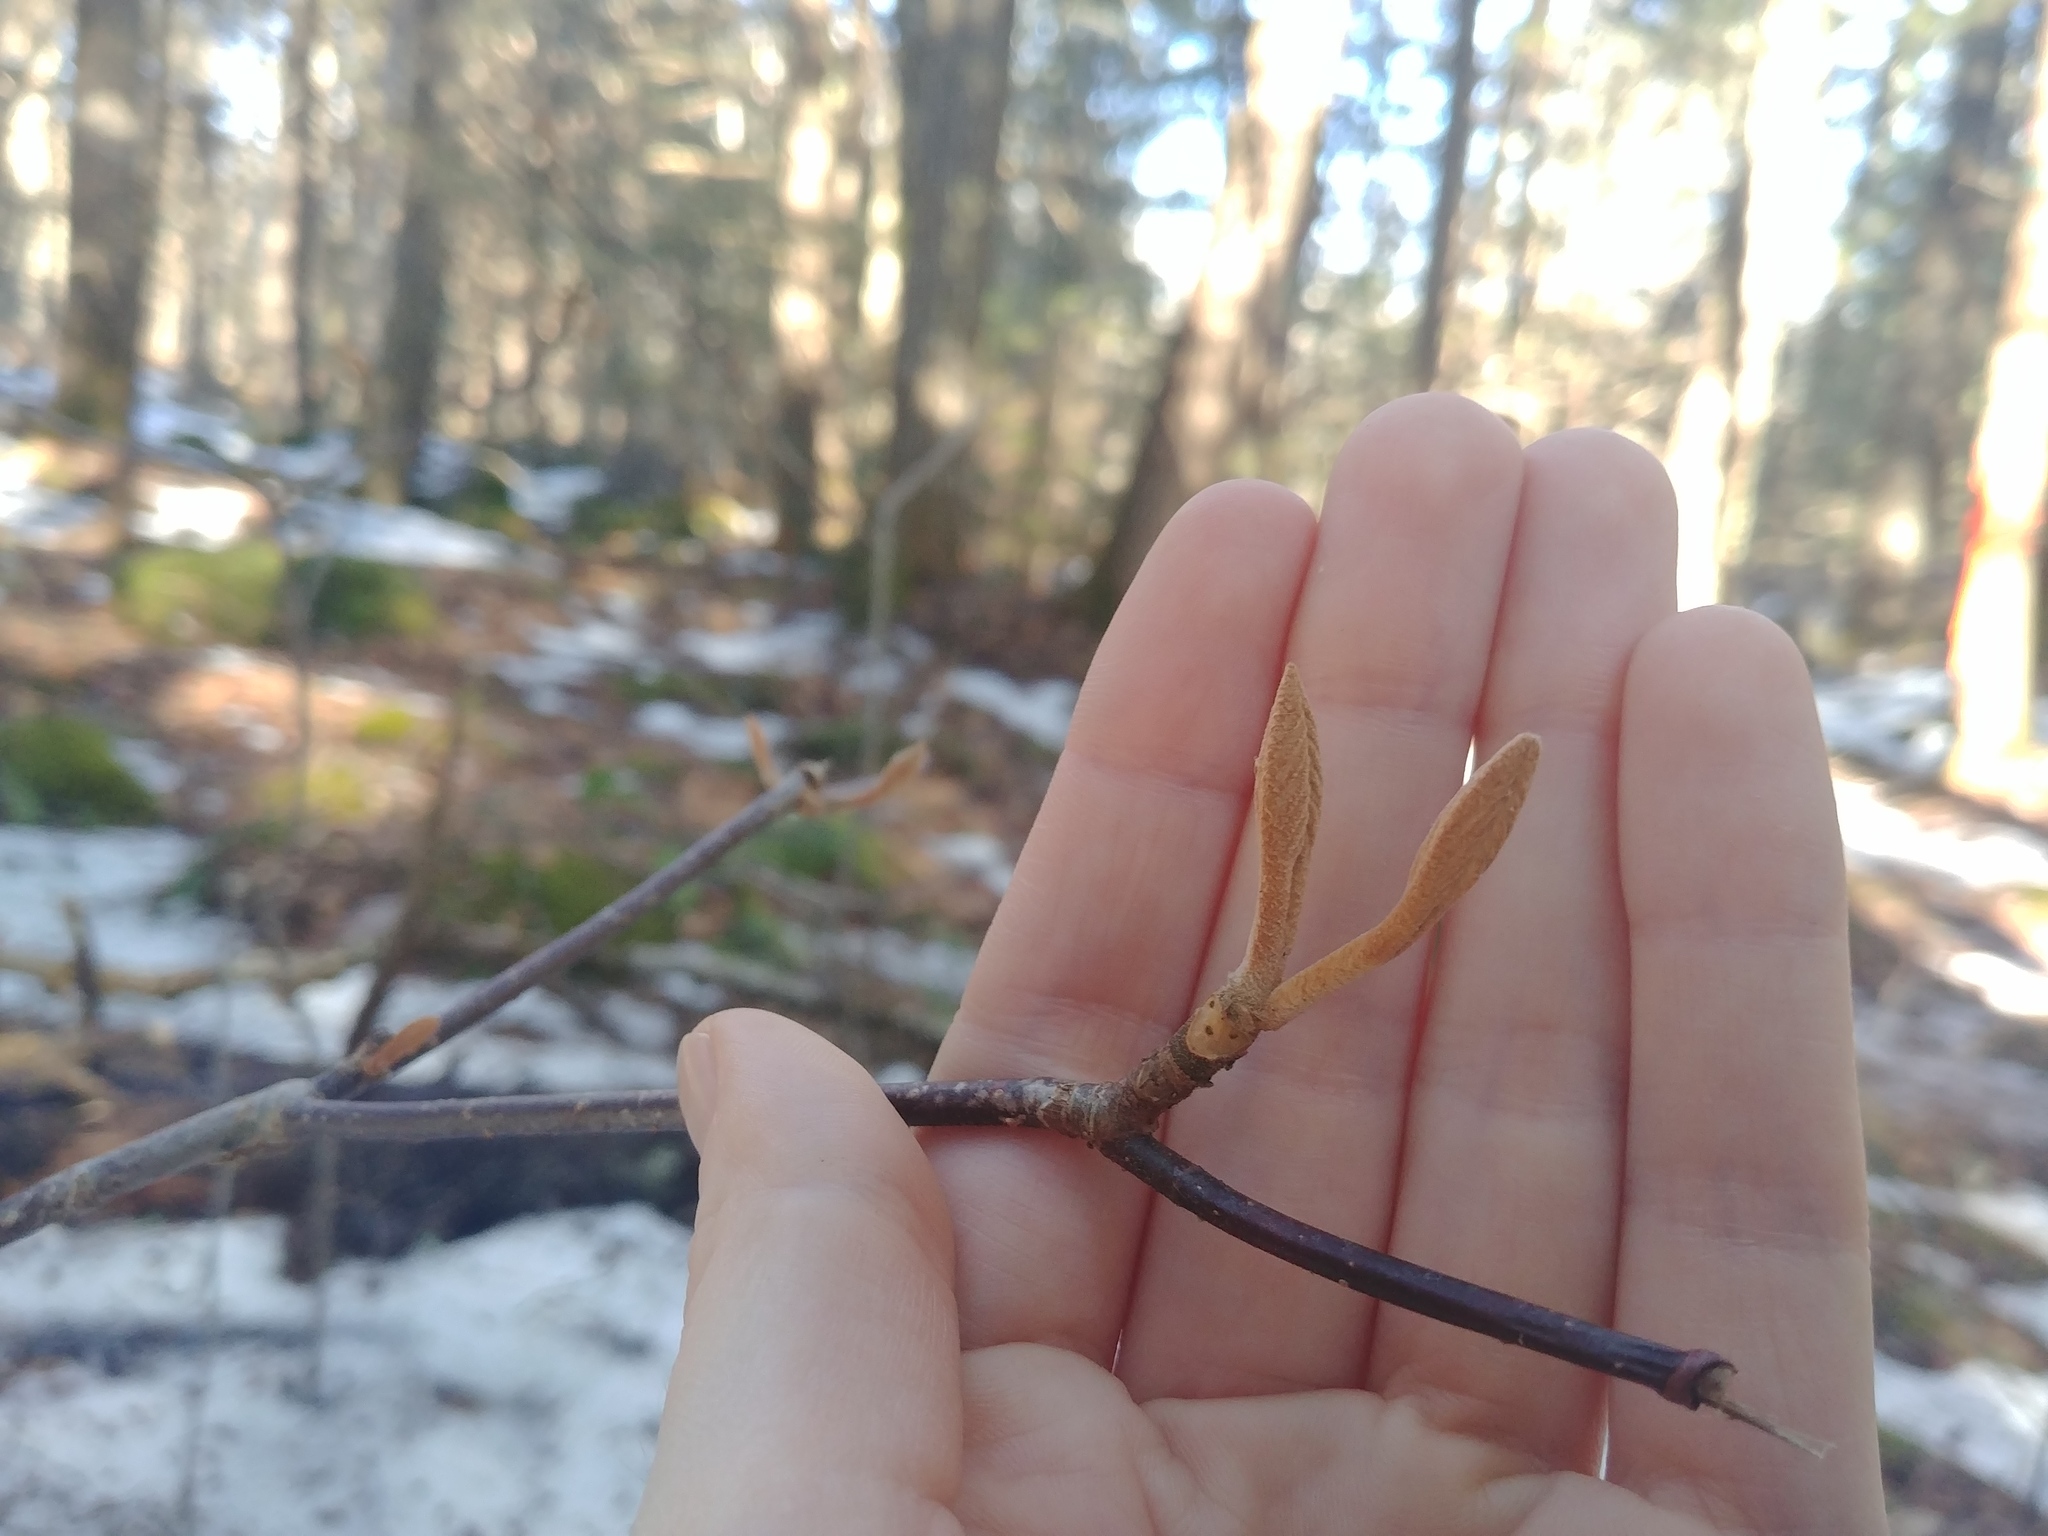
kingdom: Plantae
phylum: Tracheophyta
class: Magnoliopsida
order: Dipsacales
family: Viburnaceae
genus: Viburnum
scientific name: Viburnum lantanoides
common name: Hobblebush
